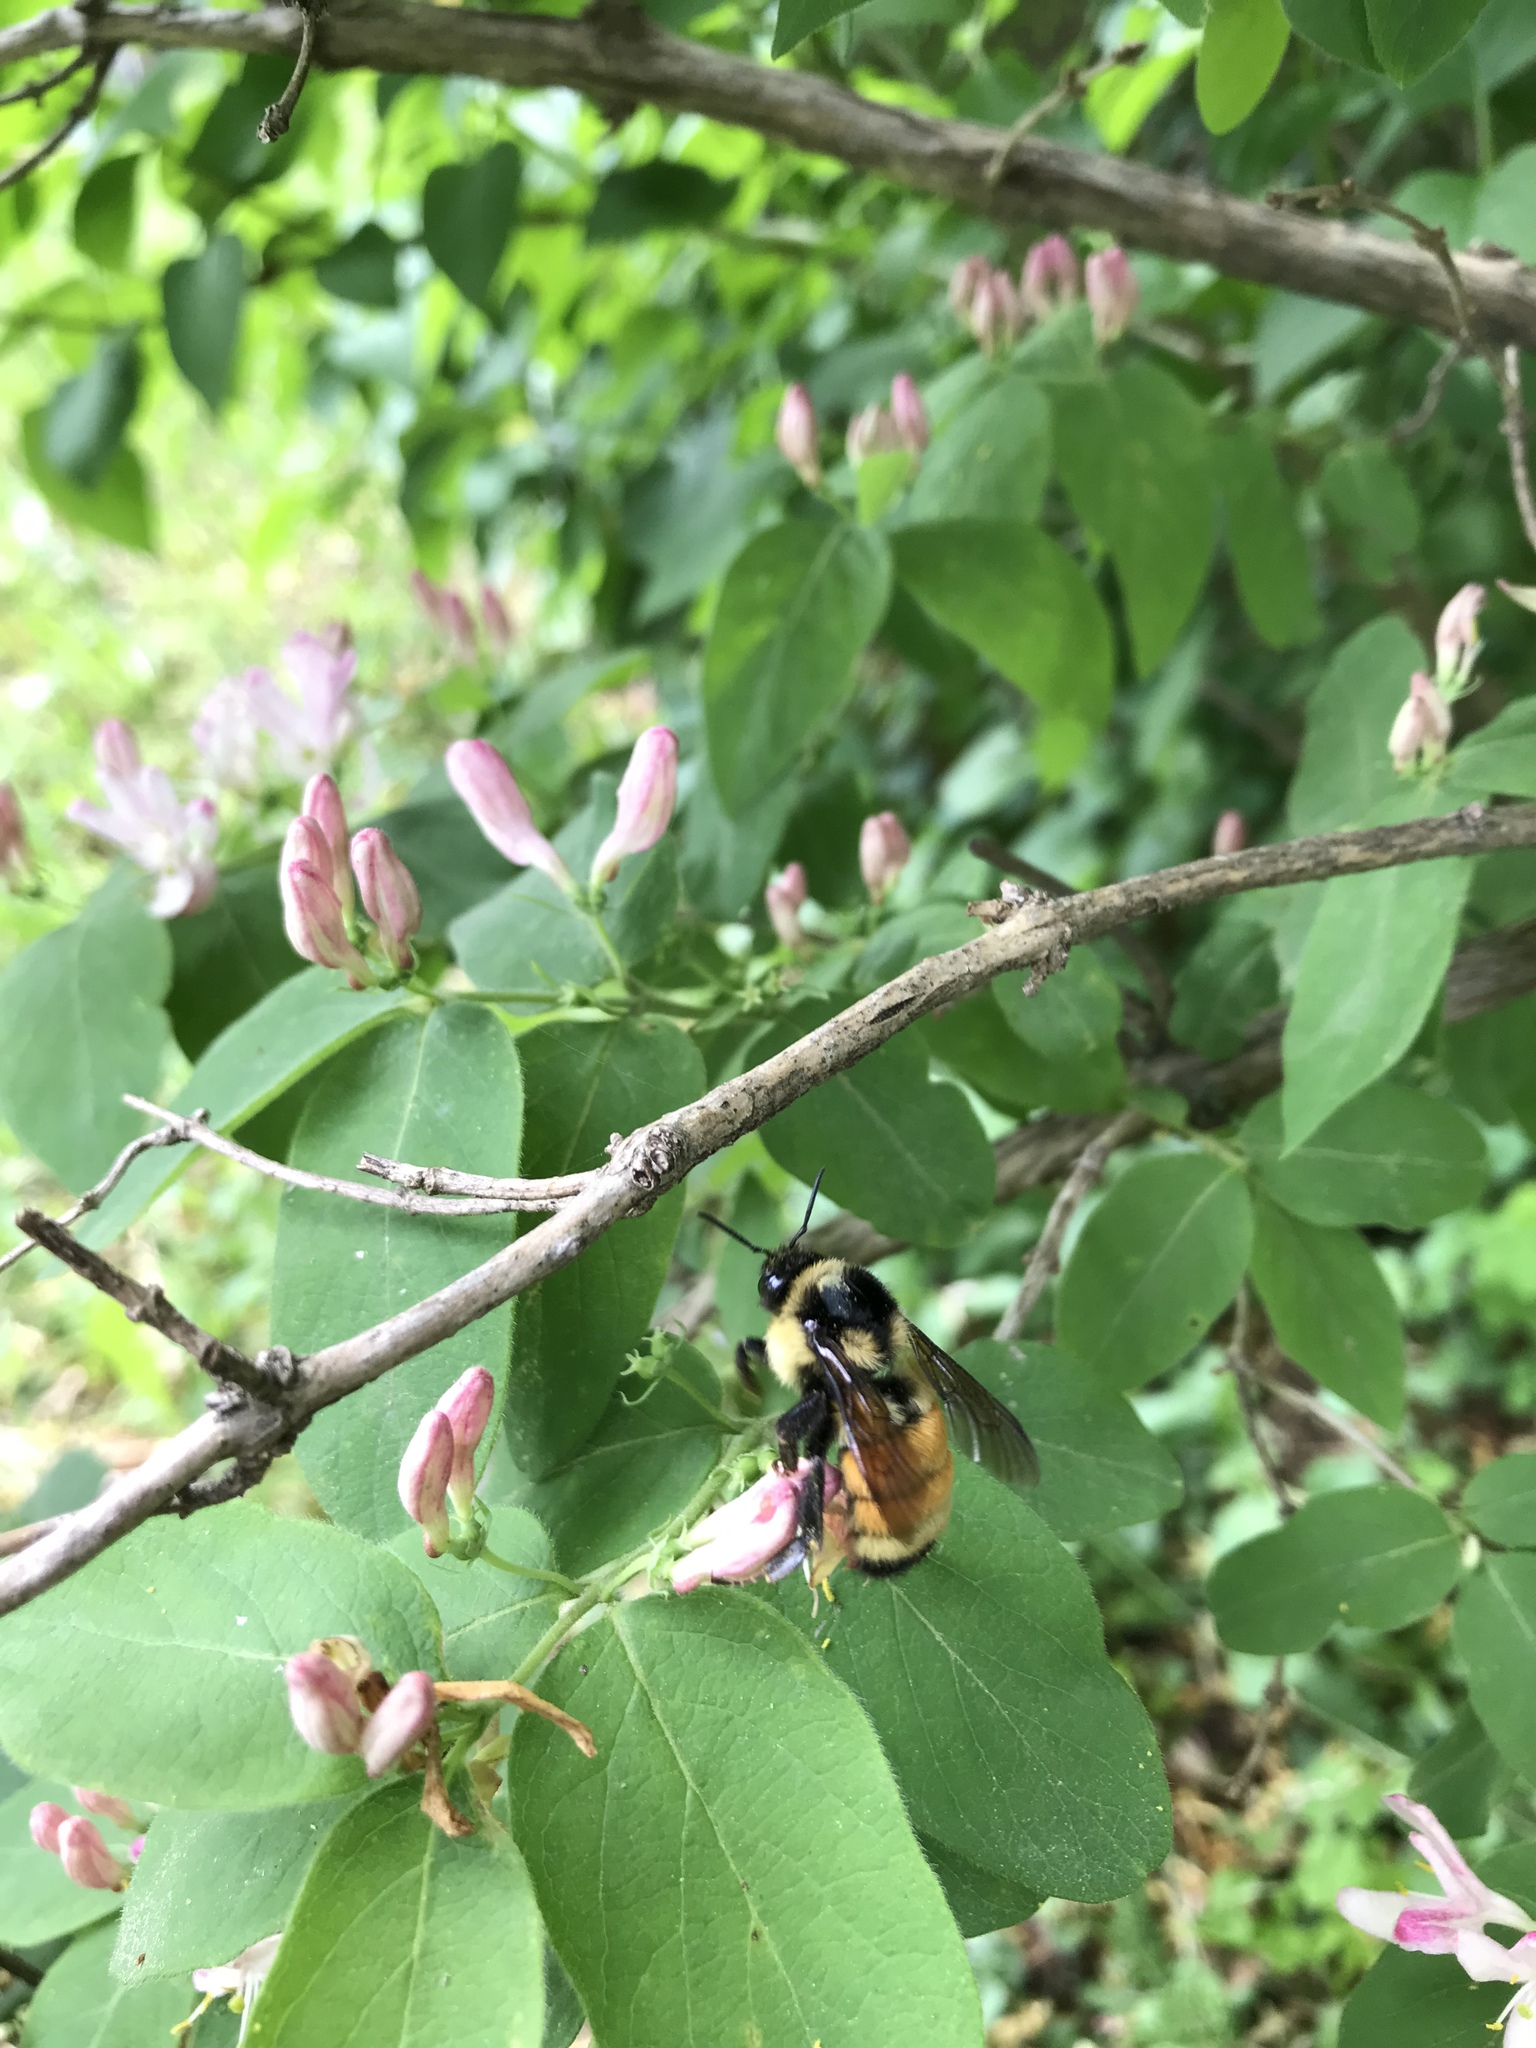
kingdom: Animalia
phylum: Arthropoda
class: Insecta
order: Hymenoptera
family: Apidae
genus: Bombus
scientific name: Bombus ternarius
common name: Tri-colored bumble bee
